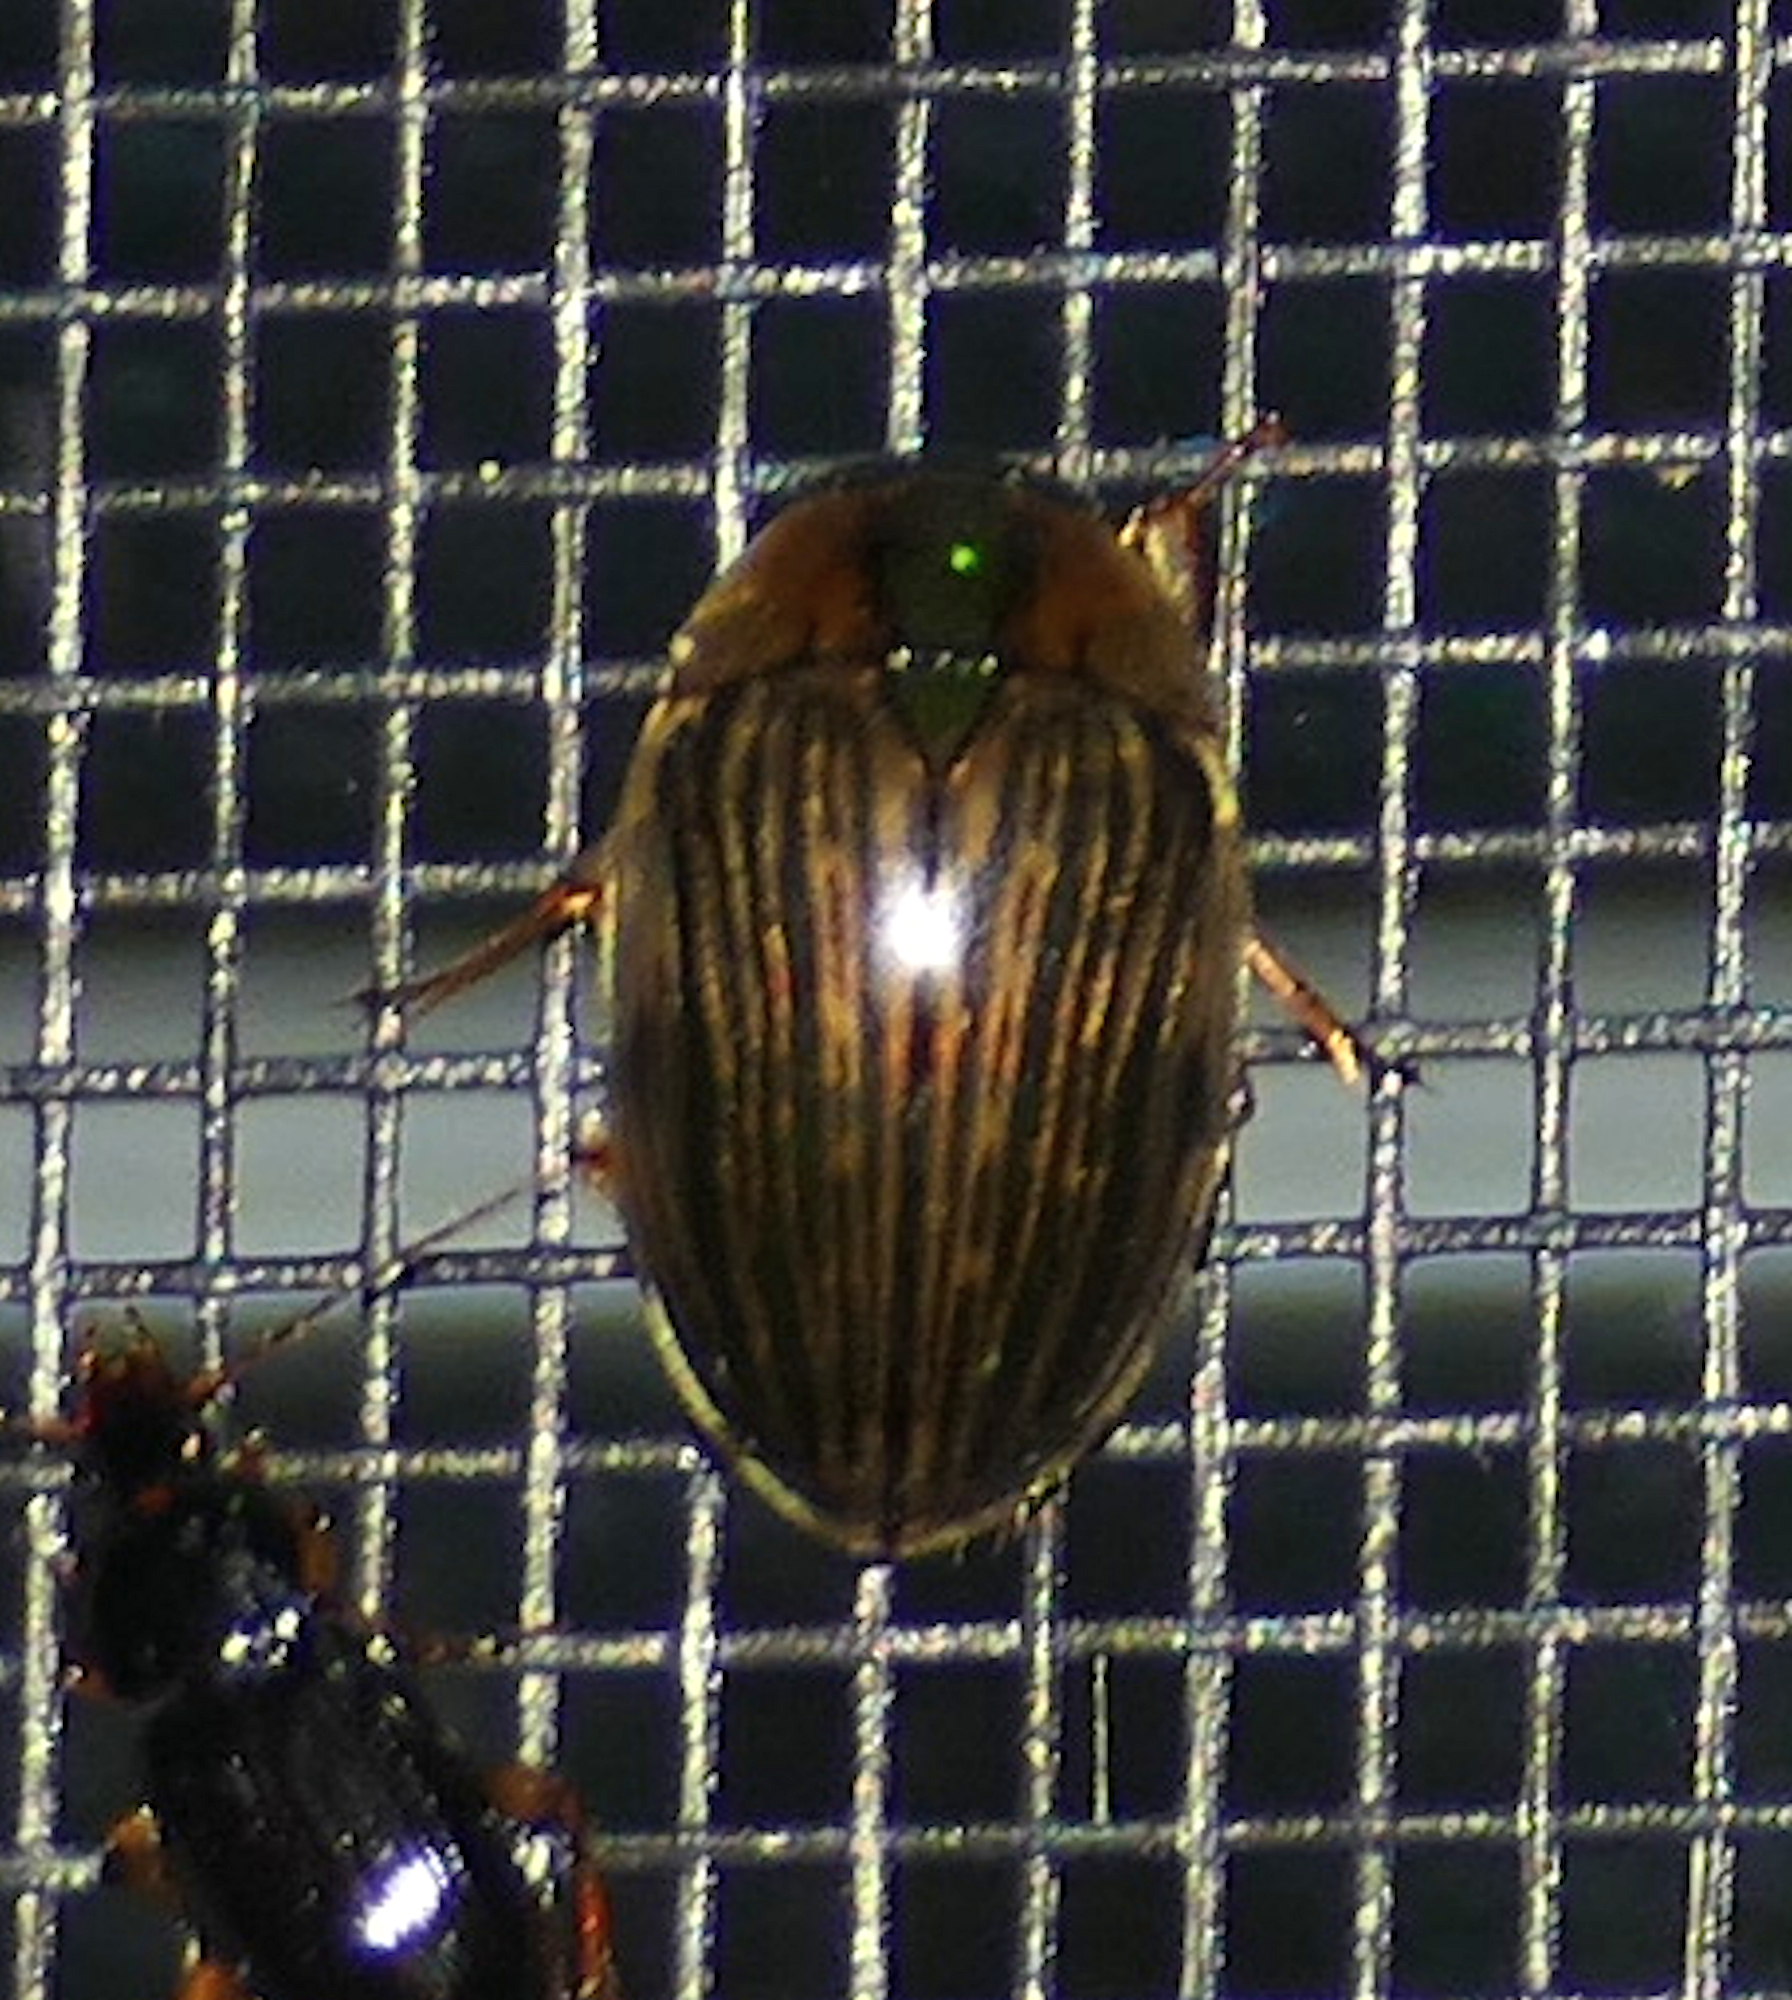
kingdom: Animalia
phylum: Arthropoda
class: Insecta
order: Coleoptera
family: Hydrophilidae
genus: Tropisternus
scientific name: Tropisternus collaris
